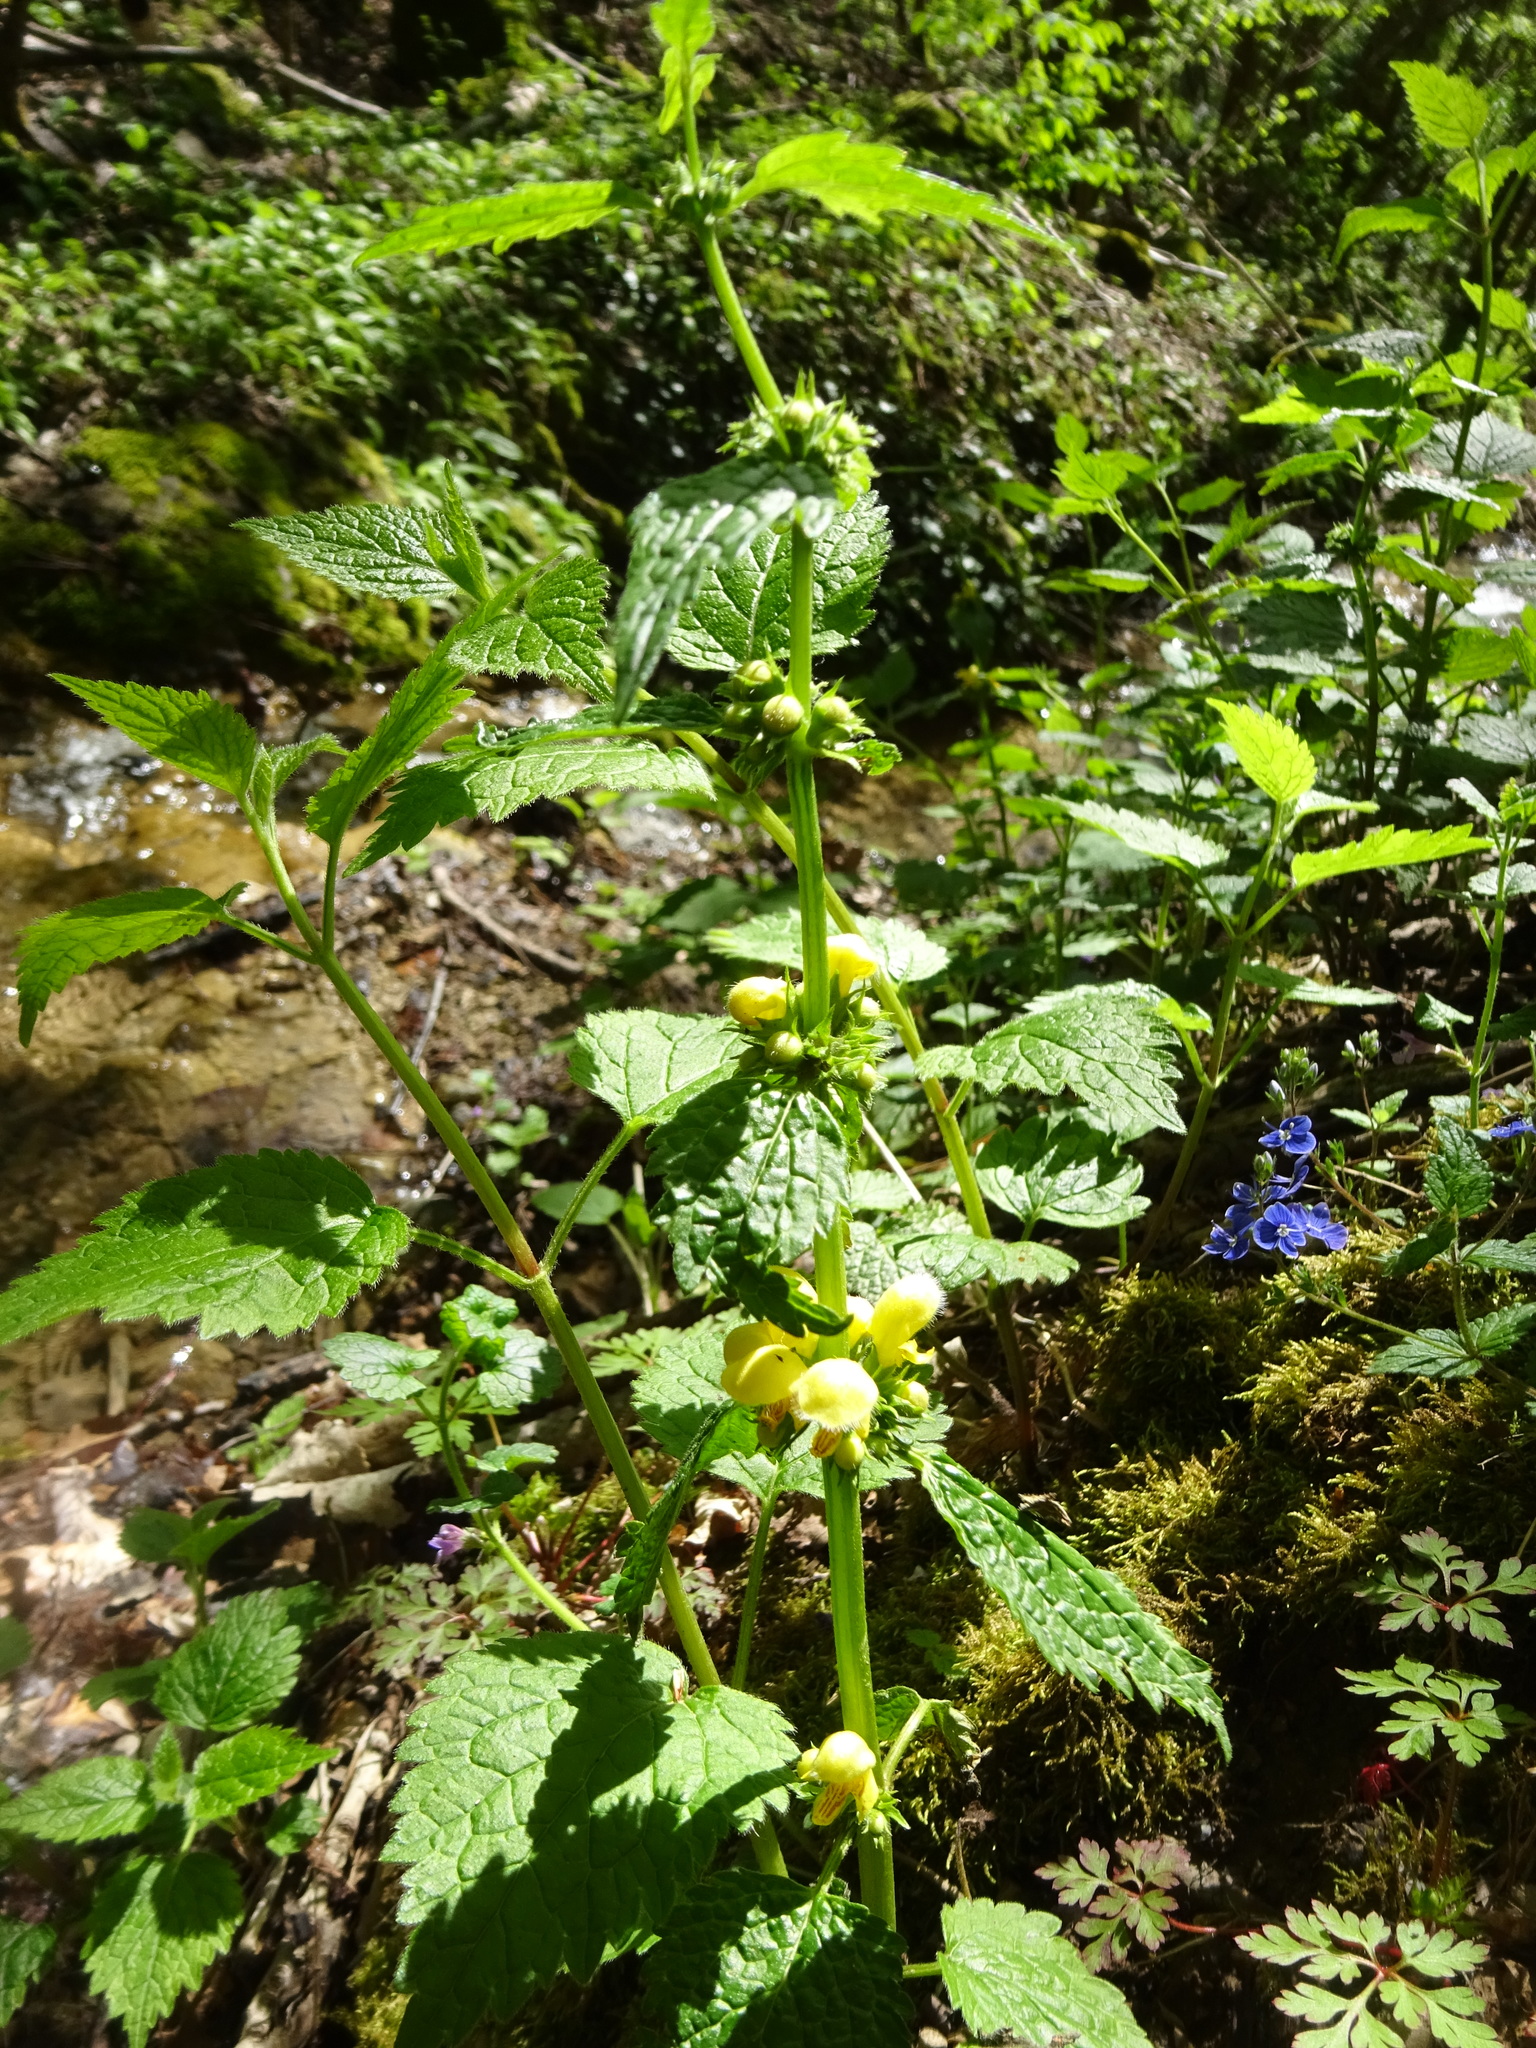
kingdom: Plantae
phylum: Tracheophyta
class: Magnoliopsida
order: Lamiales
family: Lamiaceae
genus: Lamium
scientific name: Lamium galeobdolon
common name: Yellow archangel
